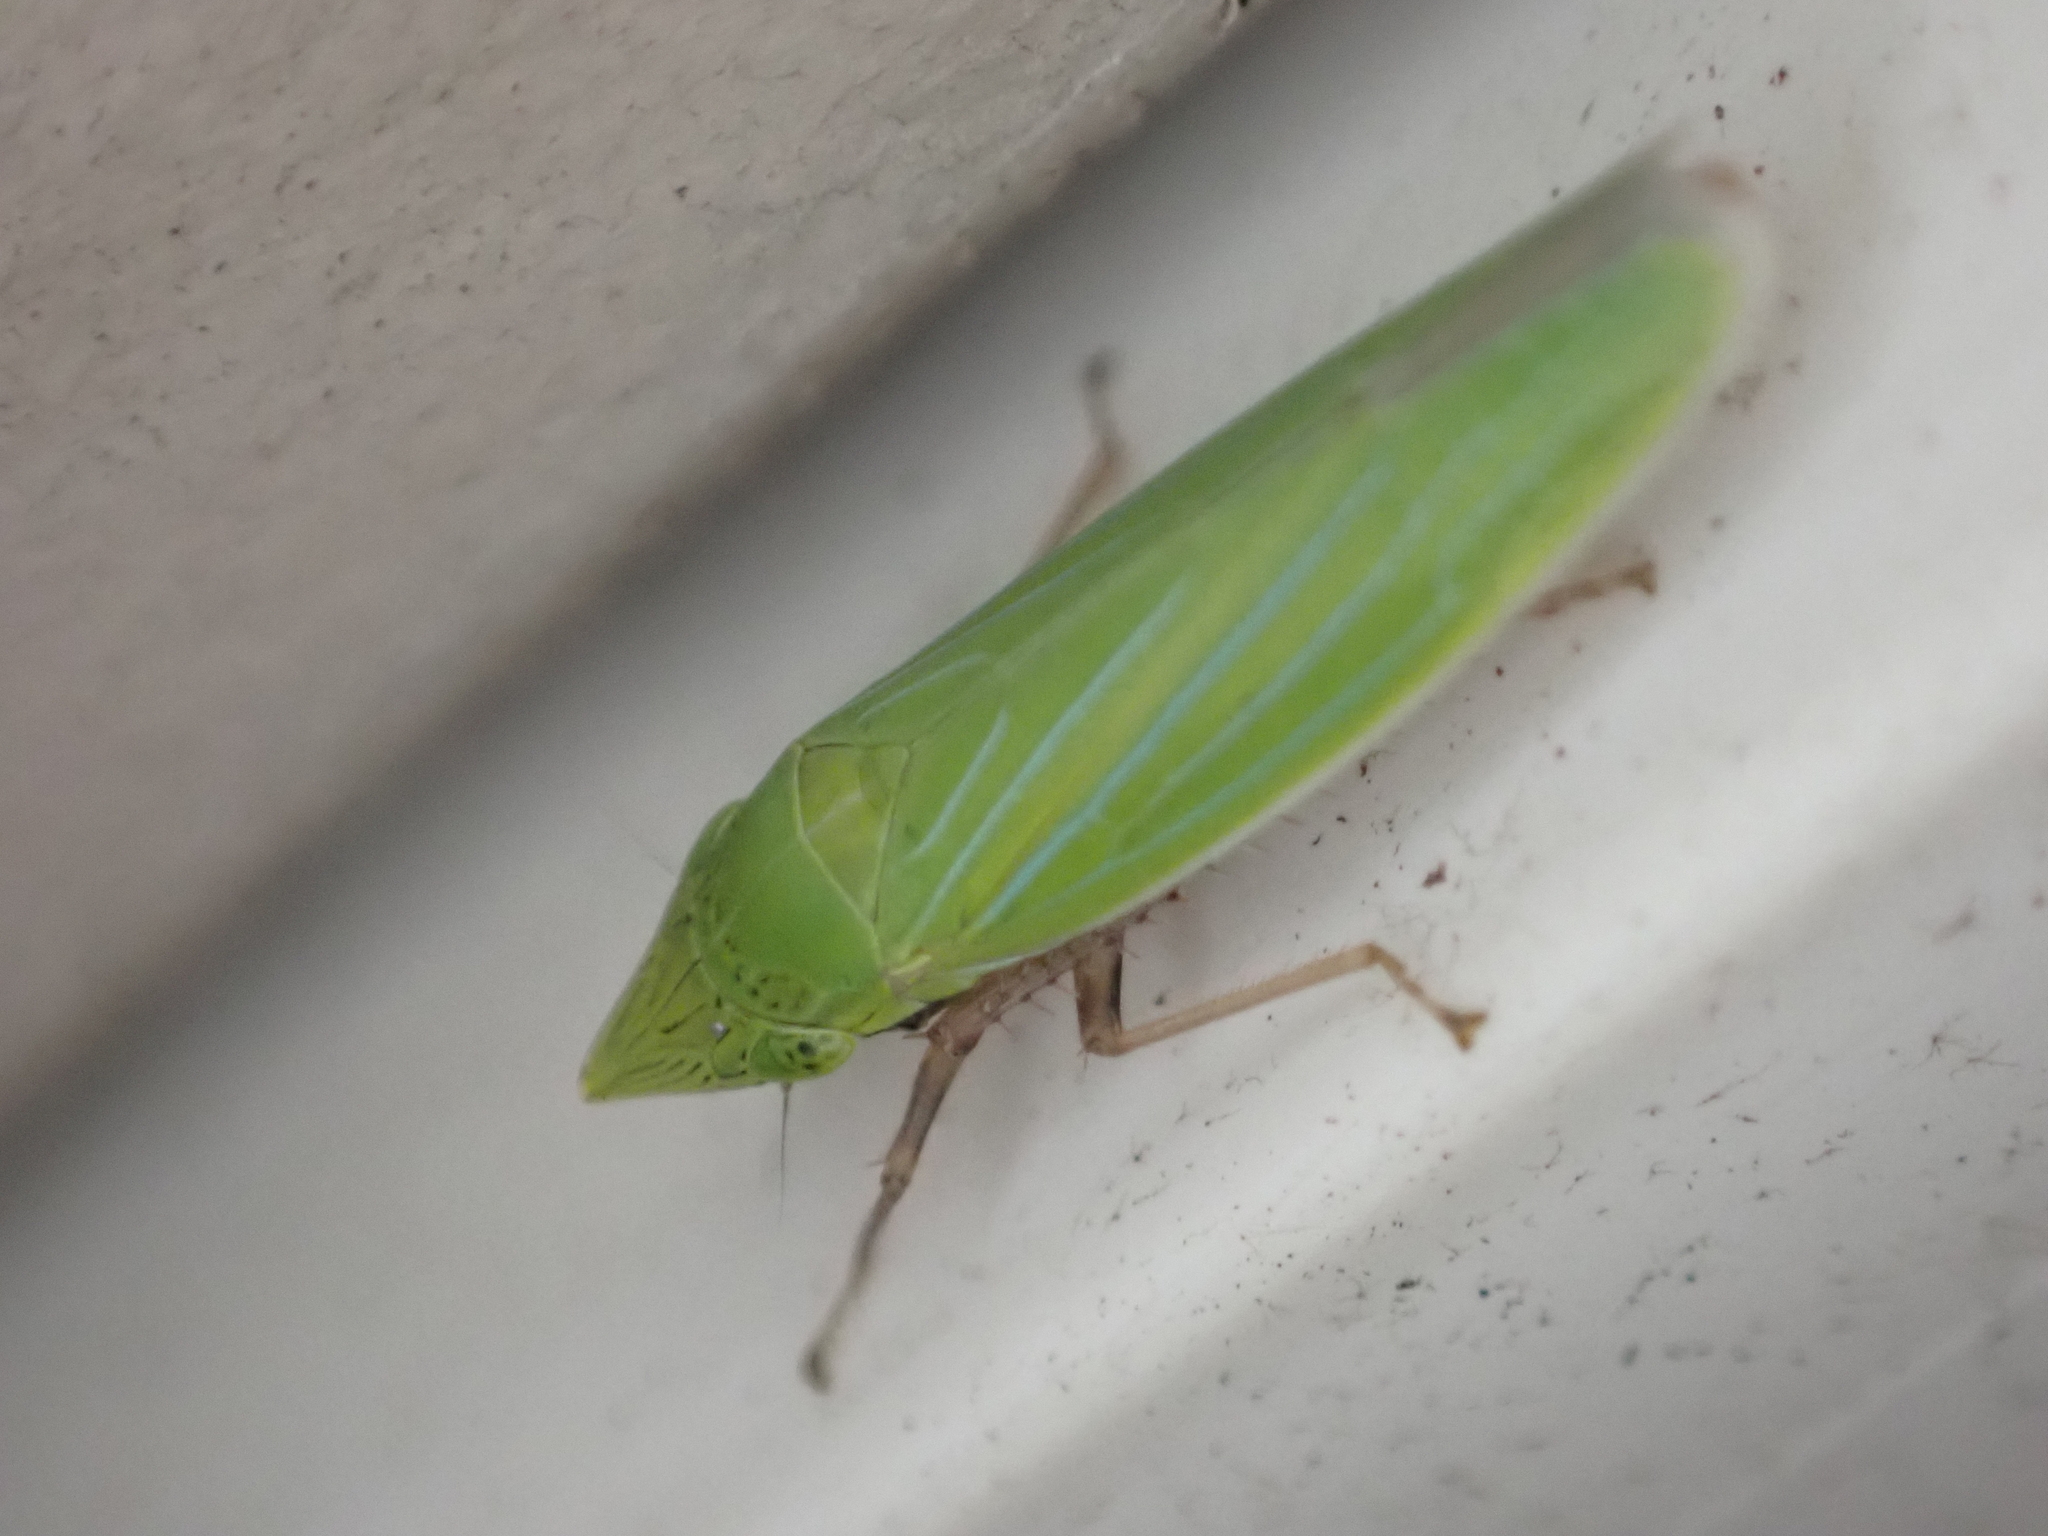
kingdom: Animalia
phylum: Arthropoda
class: Insecta
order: Hemiptera
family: Cicadellidae
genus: Draeculacephala
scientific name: Draeculacephala robinsoni
